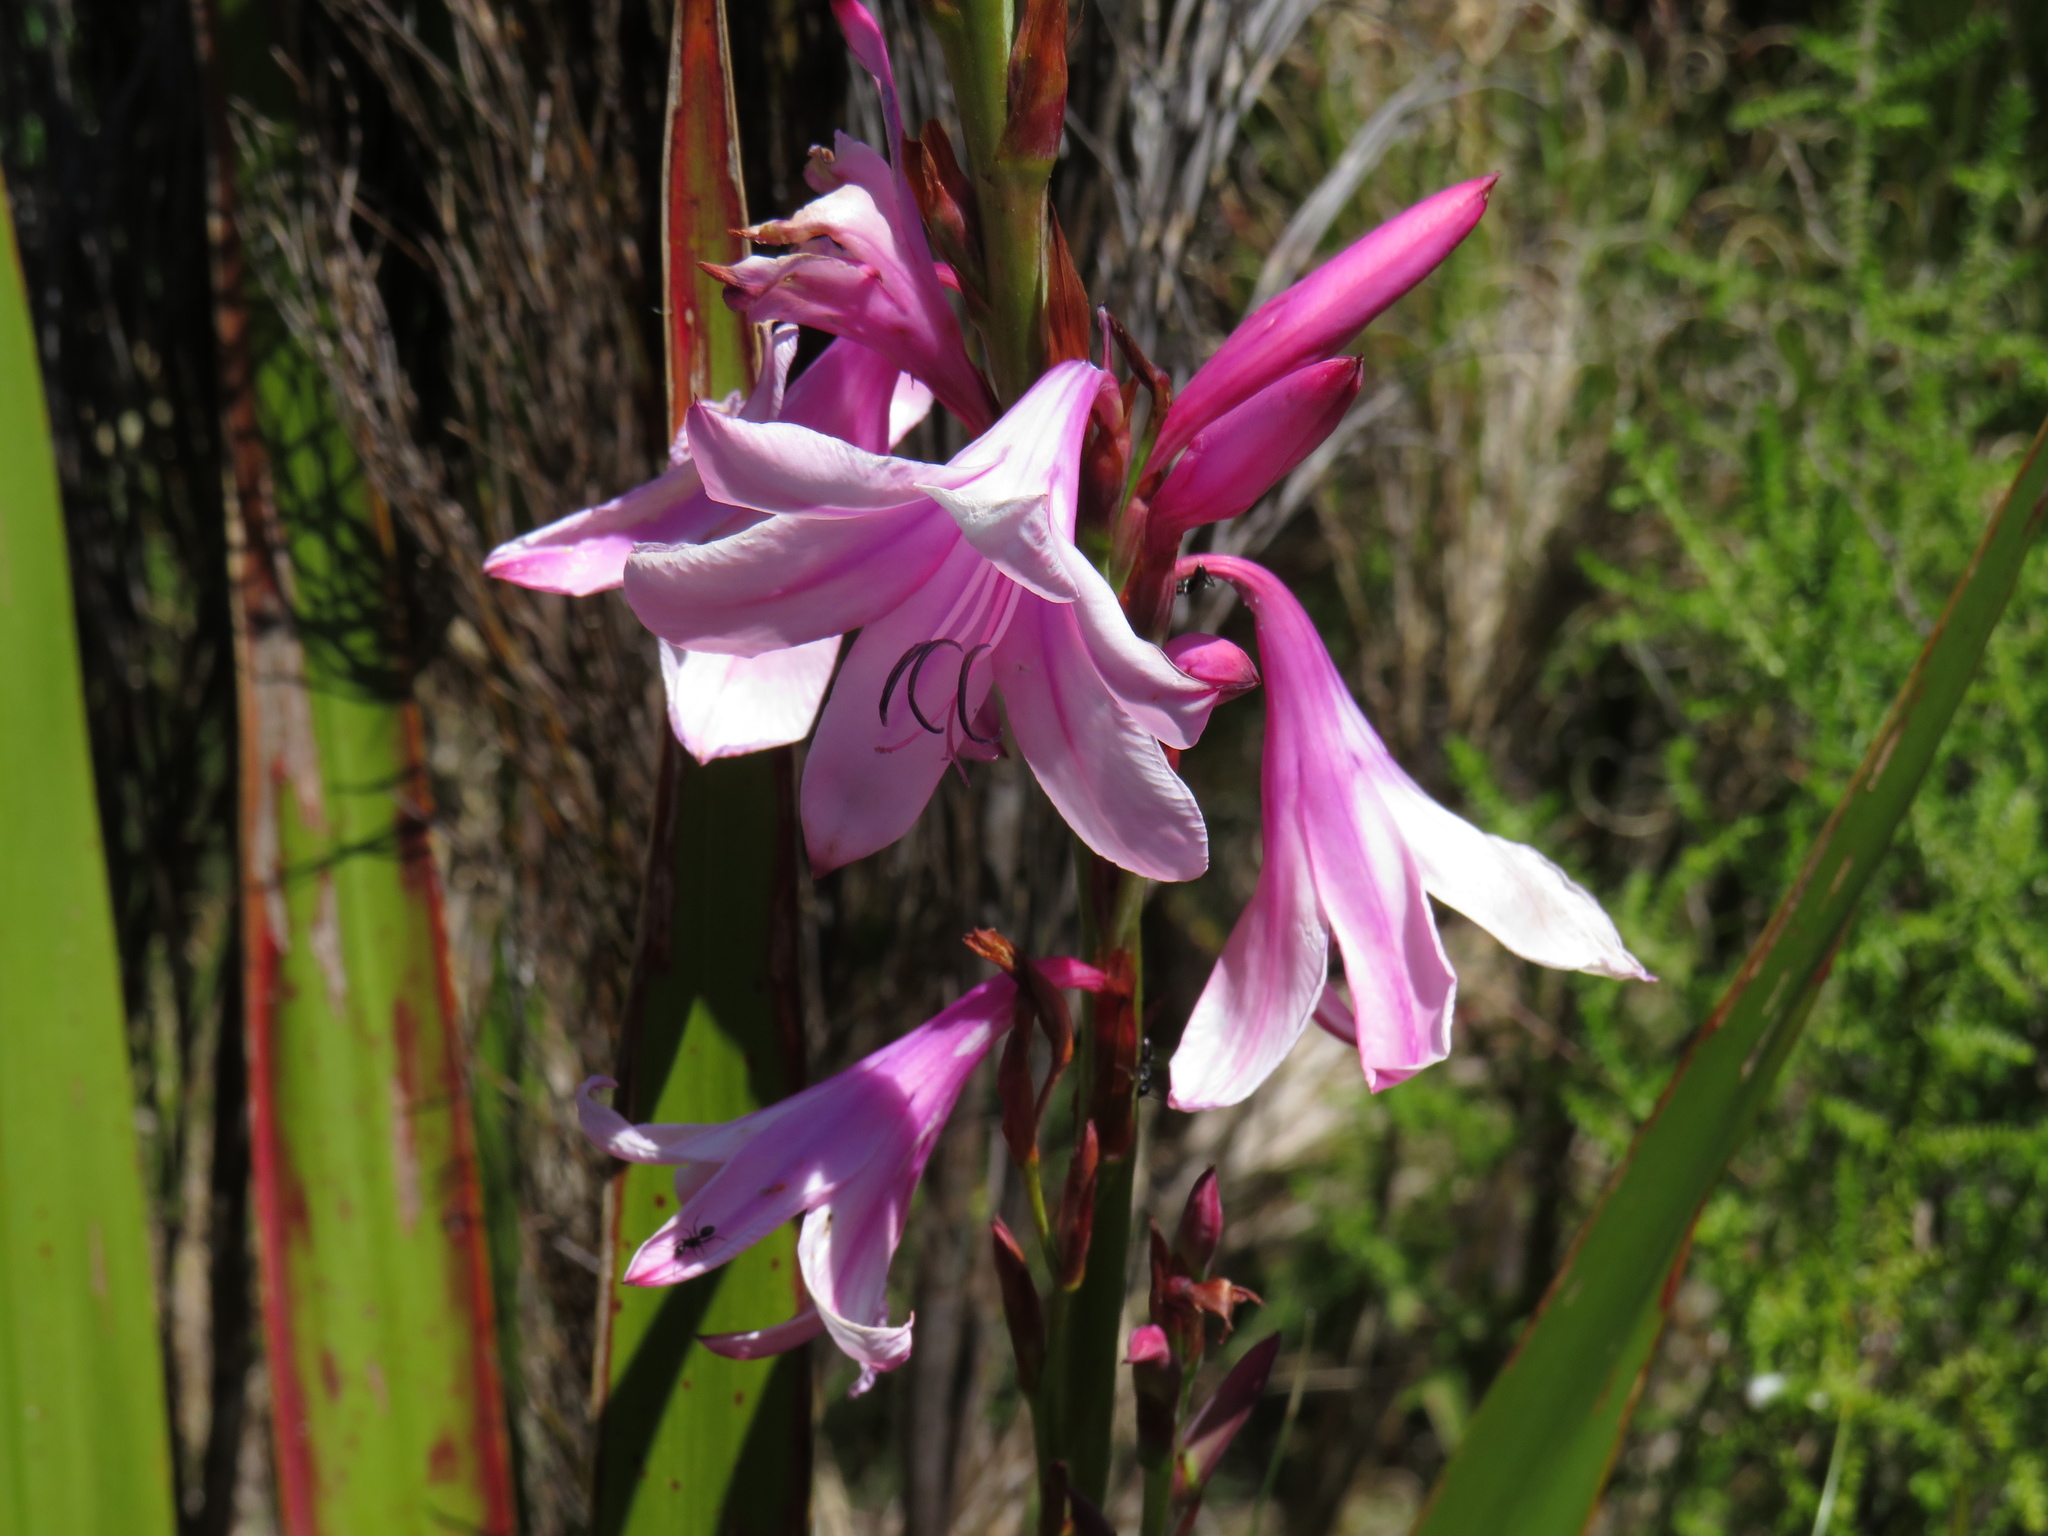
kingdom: Plantae
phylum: Tracheophyta
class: Liliopsida
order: Asparagales
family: Iridaceae
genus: Watsonia
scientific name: Watsonia borbonica
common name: Bugle-lily
